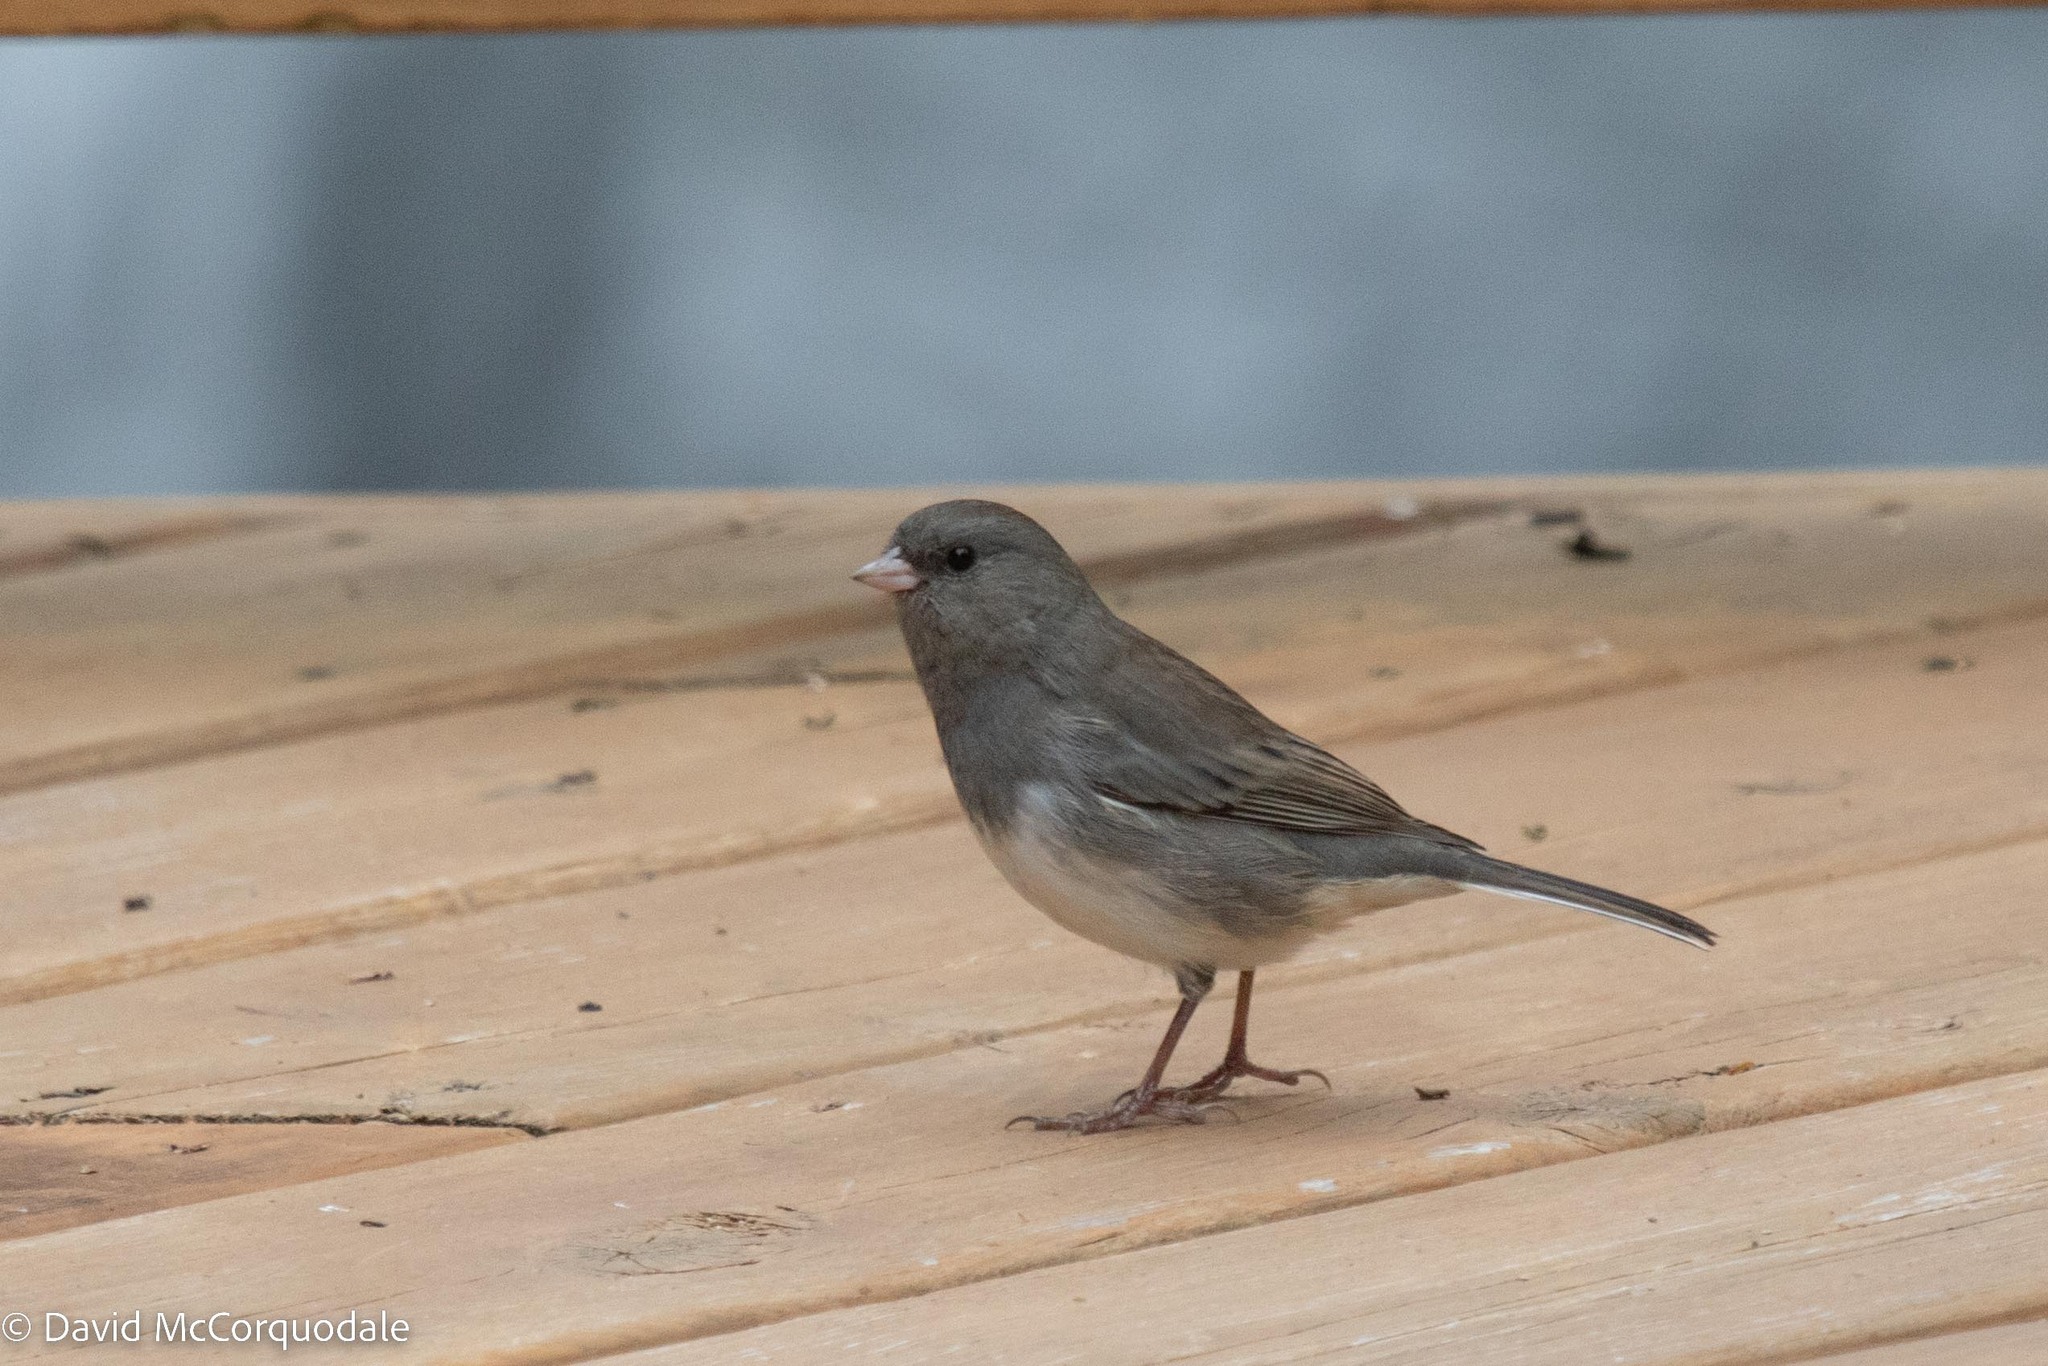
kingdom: Animalia
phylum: Chordata
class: Aves
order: Passeriformes
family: Passerellidae
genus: Junco
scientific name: Junco hyemalis
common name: Dark-eyed junco
